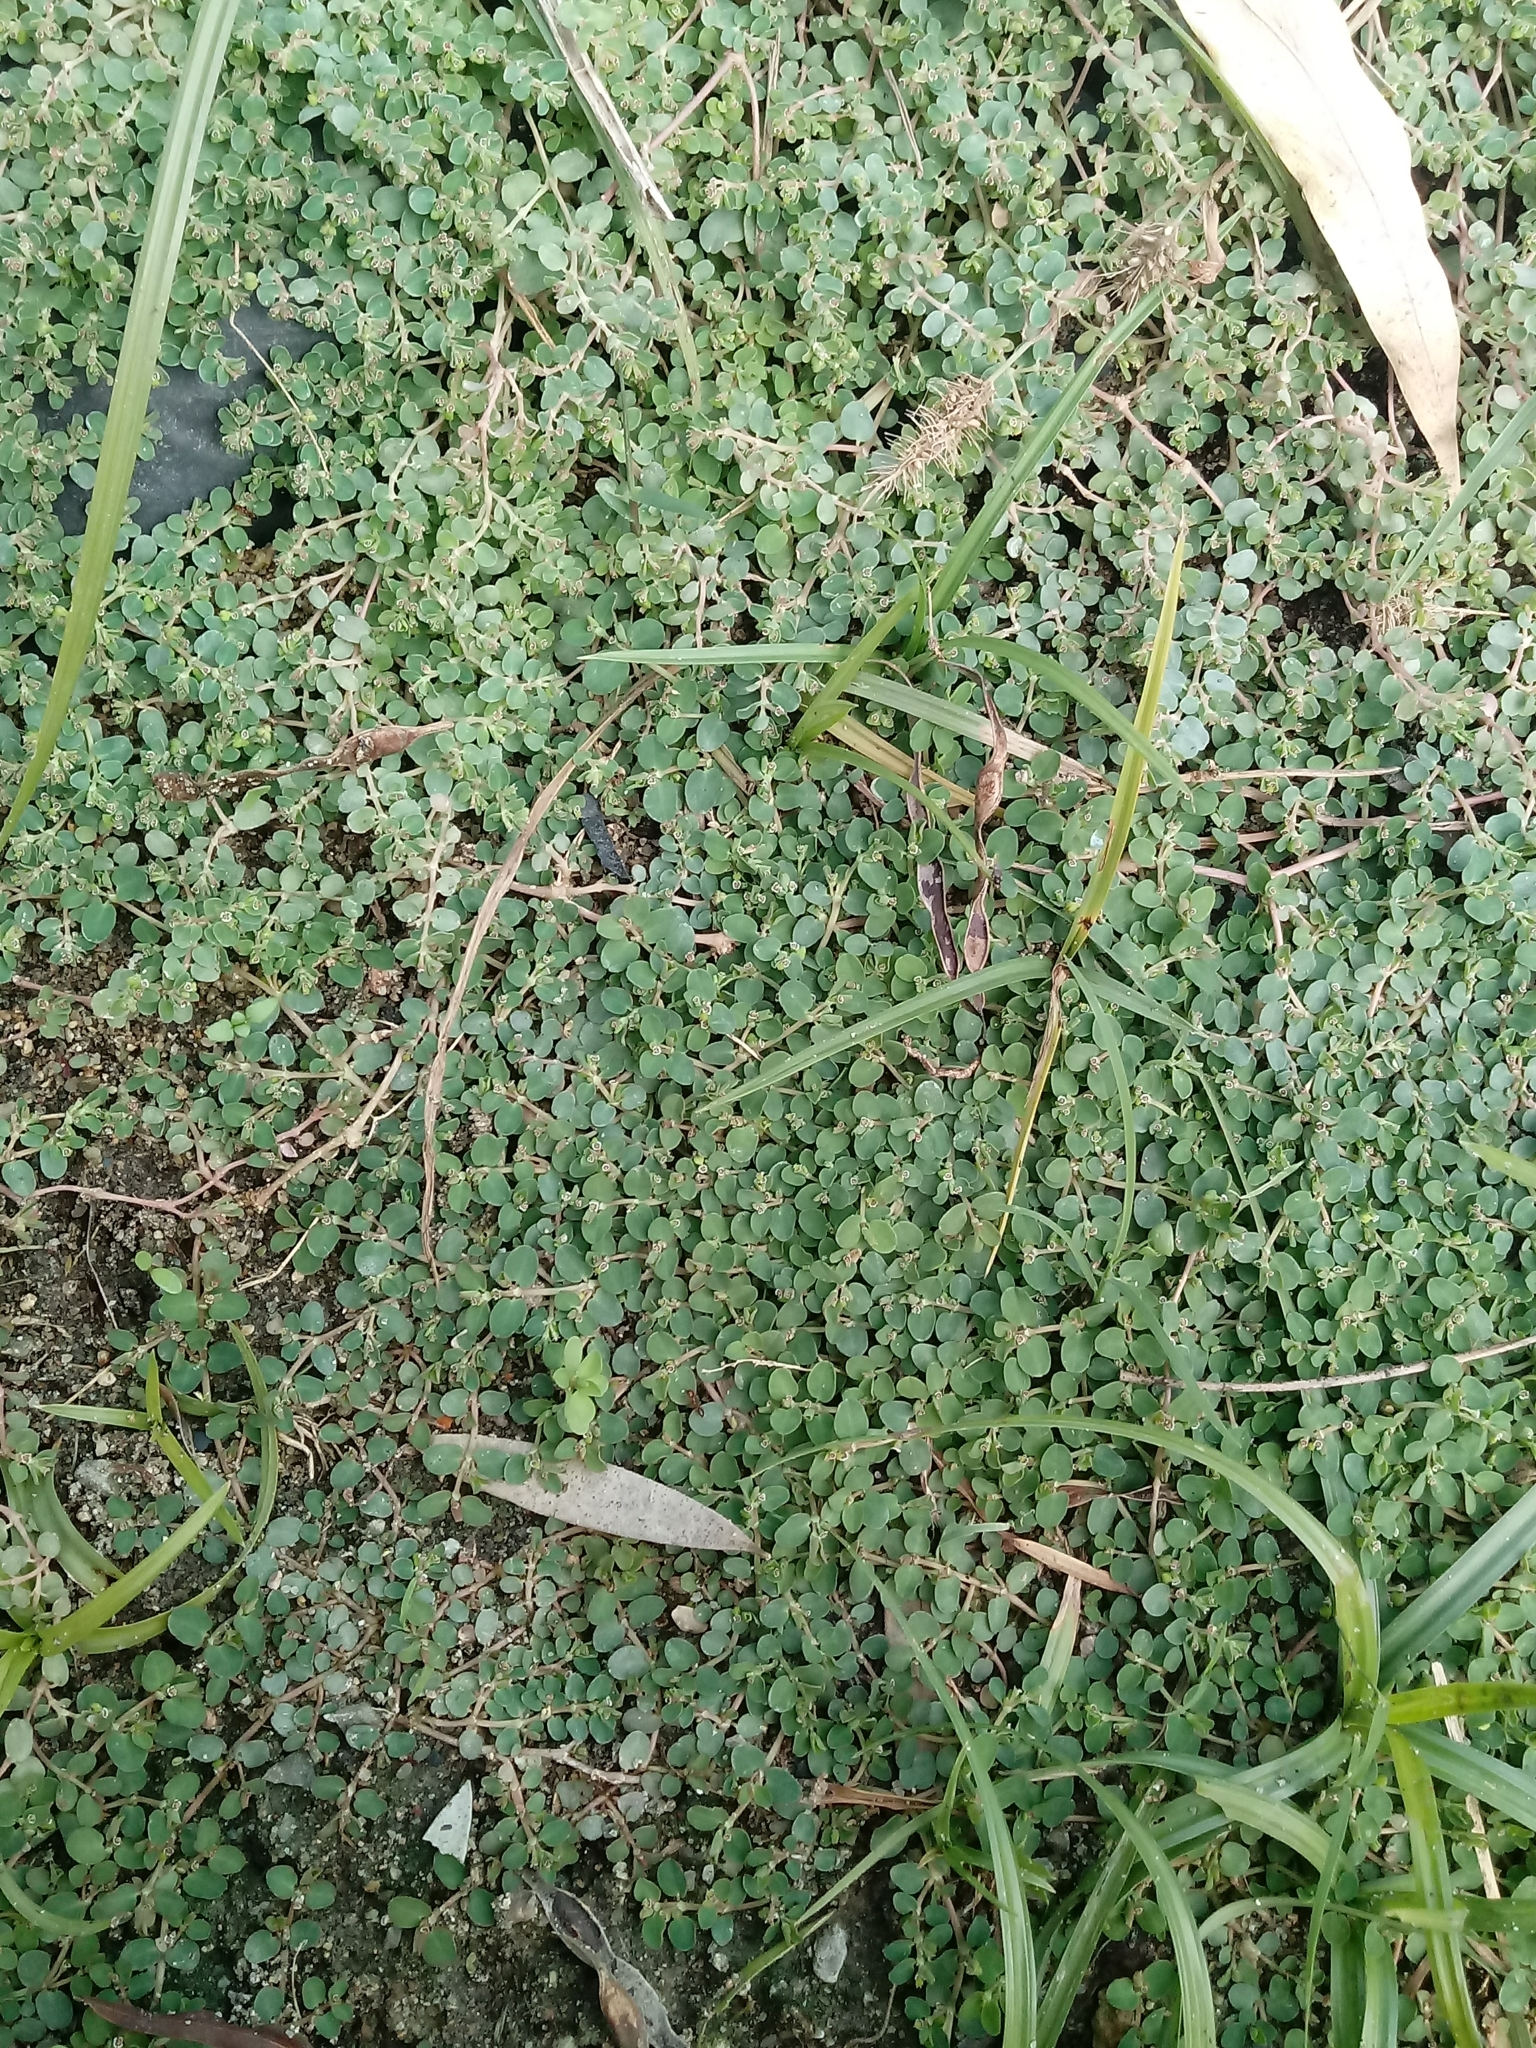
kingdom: Plantae
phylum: Tracheophyta
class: Magnoliopsida
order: Malpighiales
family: Euphorbiaceae
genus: Euphorbia
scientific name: Euphorbia serpens
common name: Matted sandmat
